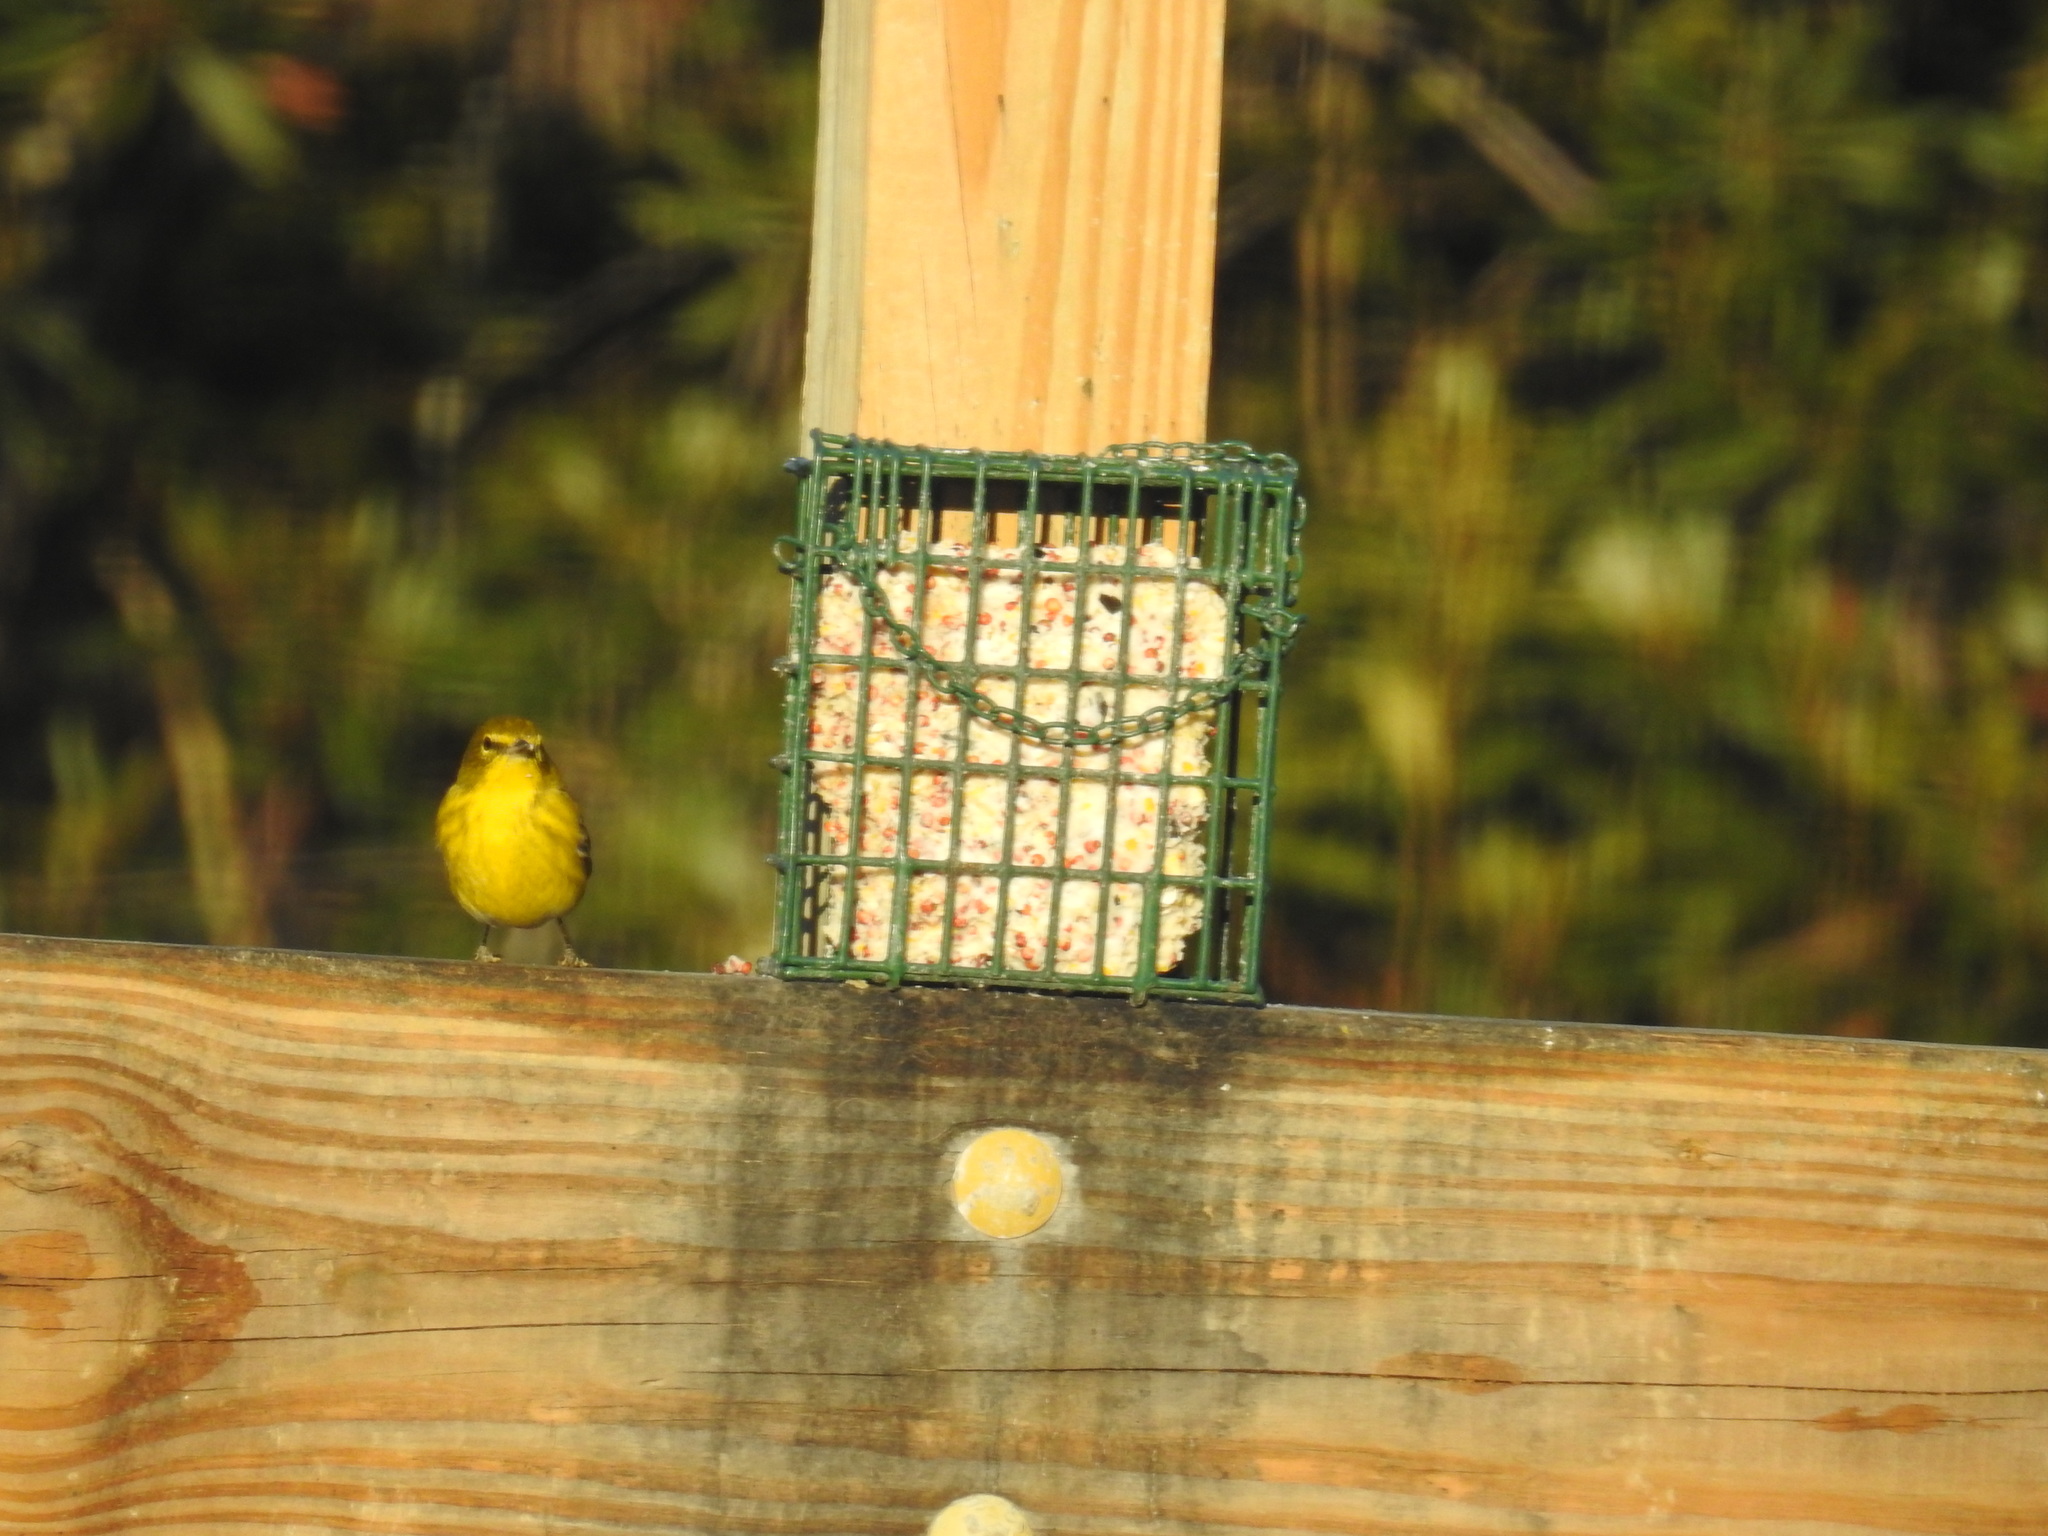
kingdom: Animalia
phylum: Chordata
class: Aves
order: Passeriformes
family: Parulidae
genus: Setophaga
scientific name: Setophaga pinus
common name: Pine warbler
